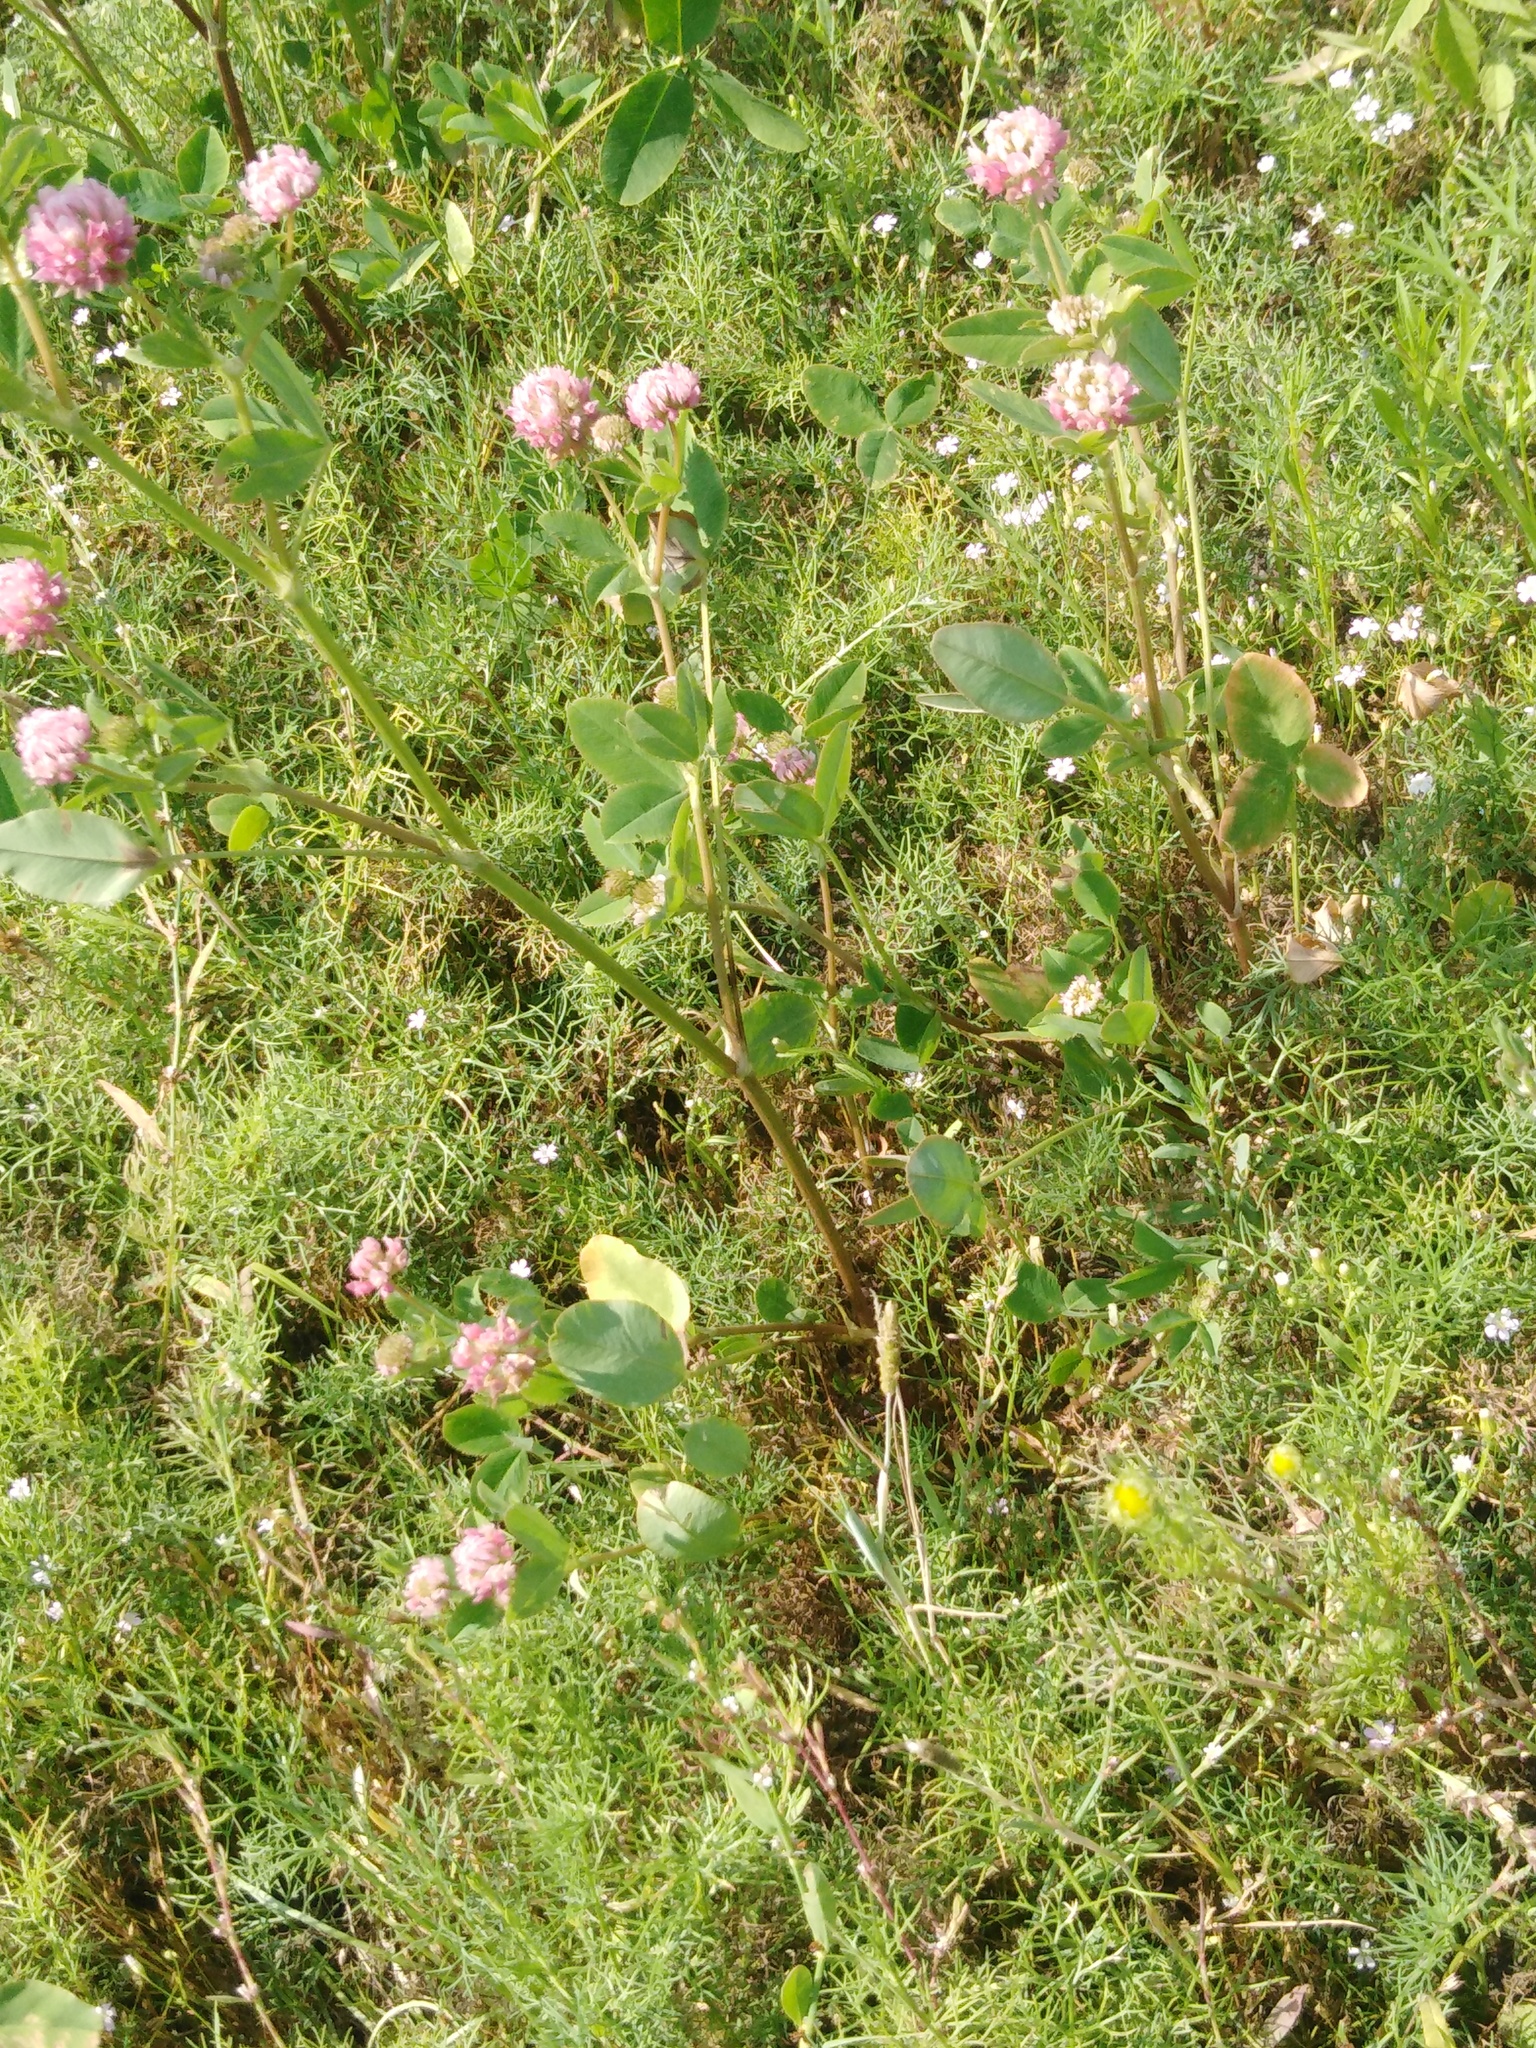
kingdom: Plantae
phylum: Tracheophyta
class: Magnoliopsida
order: Fabales
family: Fabaceae
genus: Trifolium
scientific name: Trifolium hybridum
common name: Alsike clover
